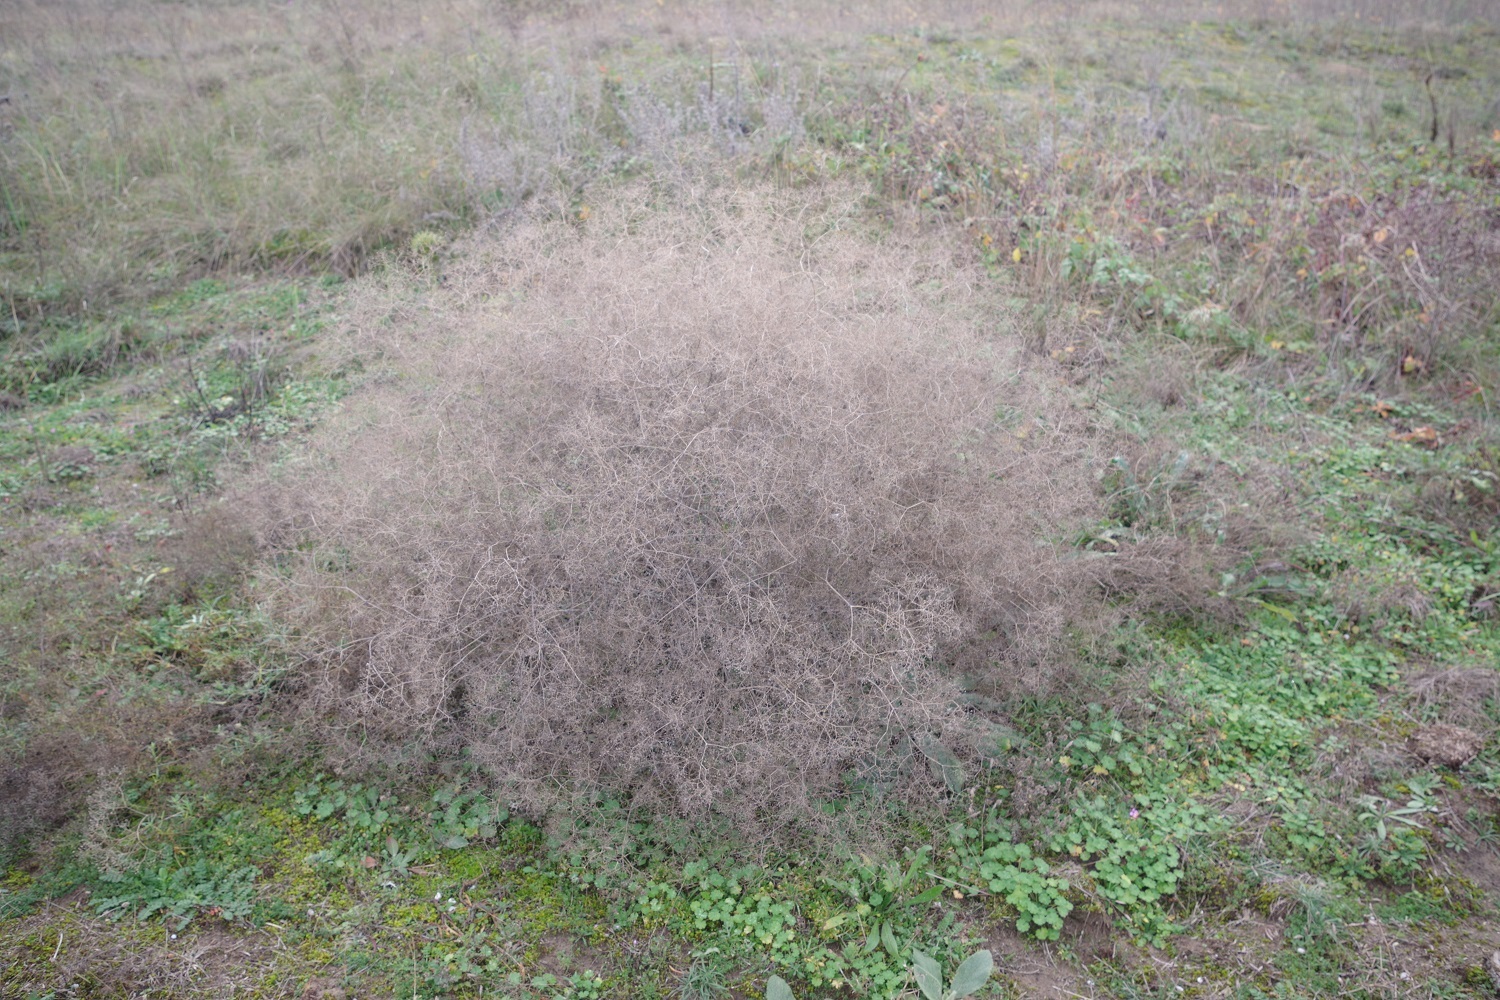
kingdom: Plantae
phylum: Tracheophyta
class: Magnoliopsida
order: Caryophyllales
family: Caryophyllaceae
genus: Gypsophila
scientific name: Gypsophila paniculata
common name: Baby's-breath
